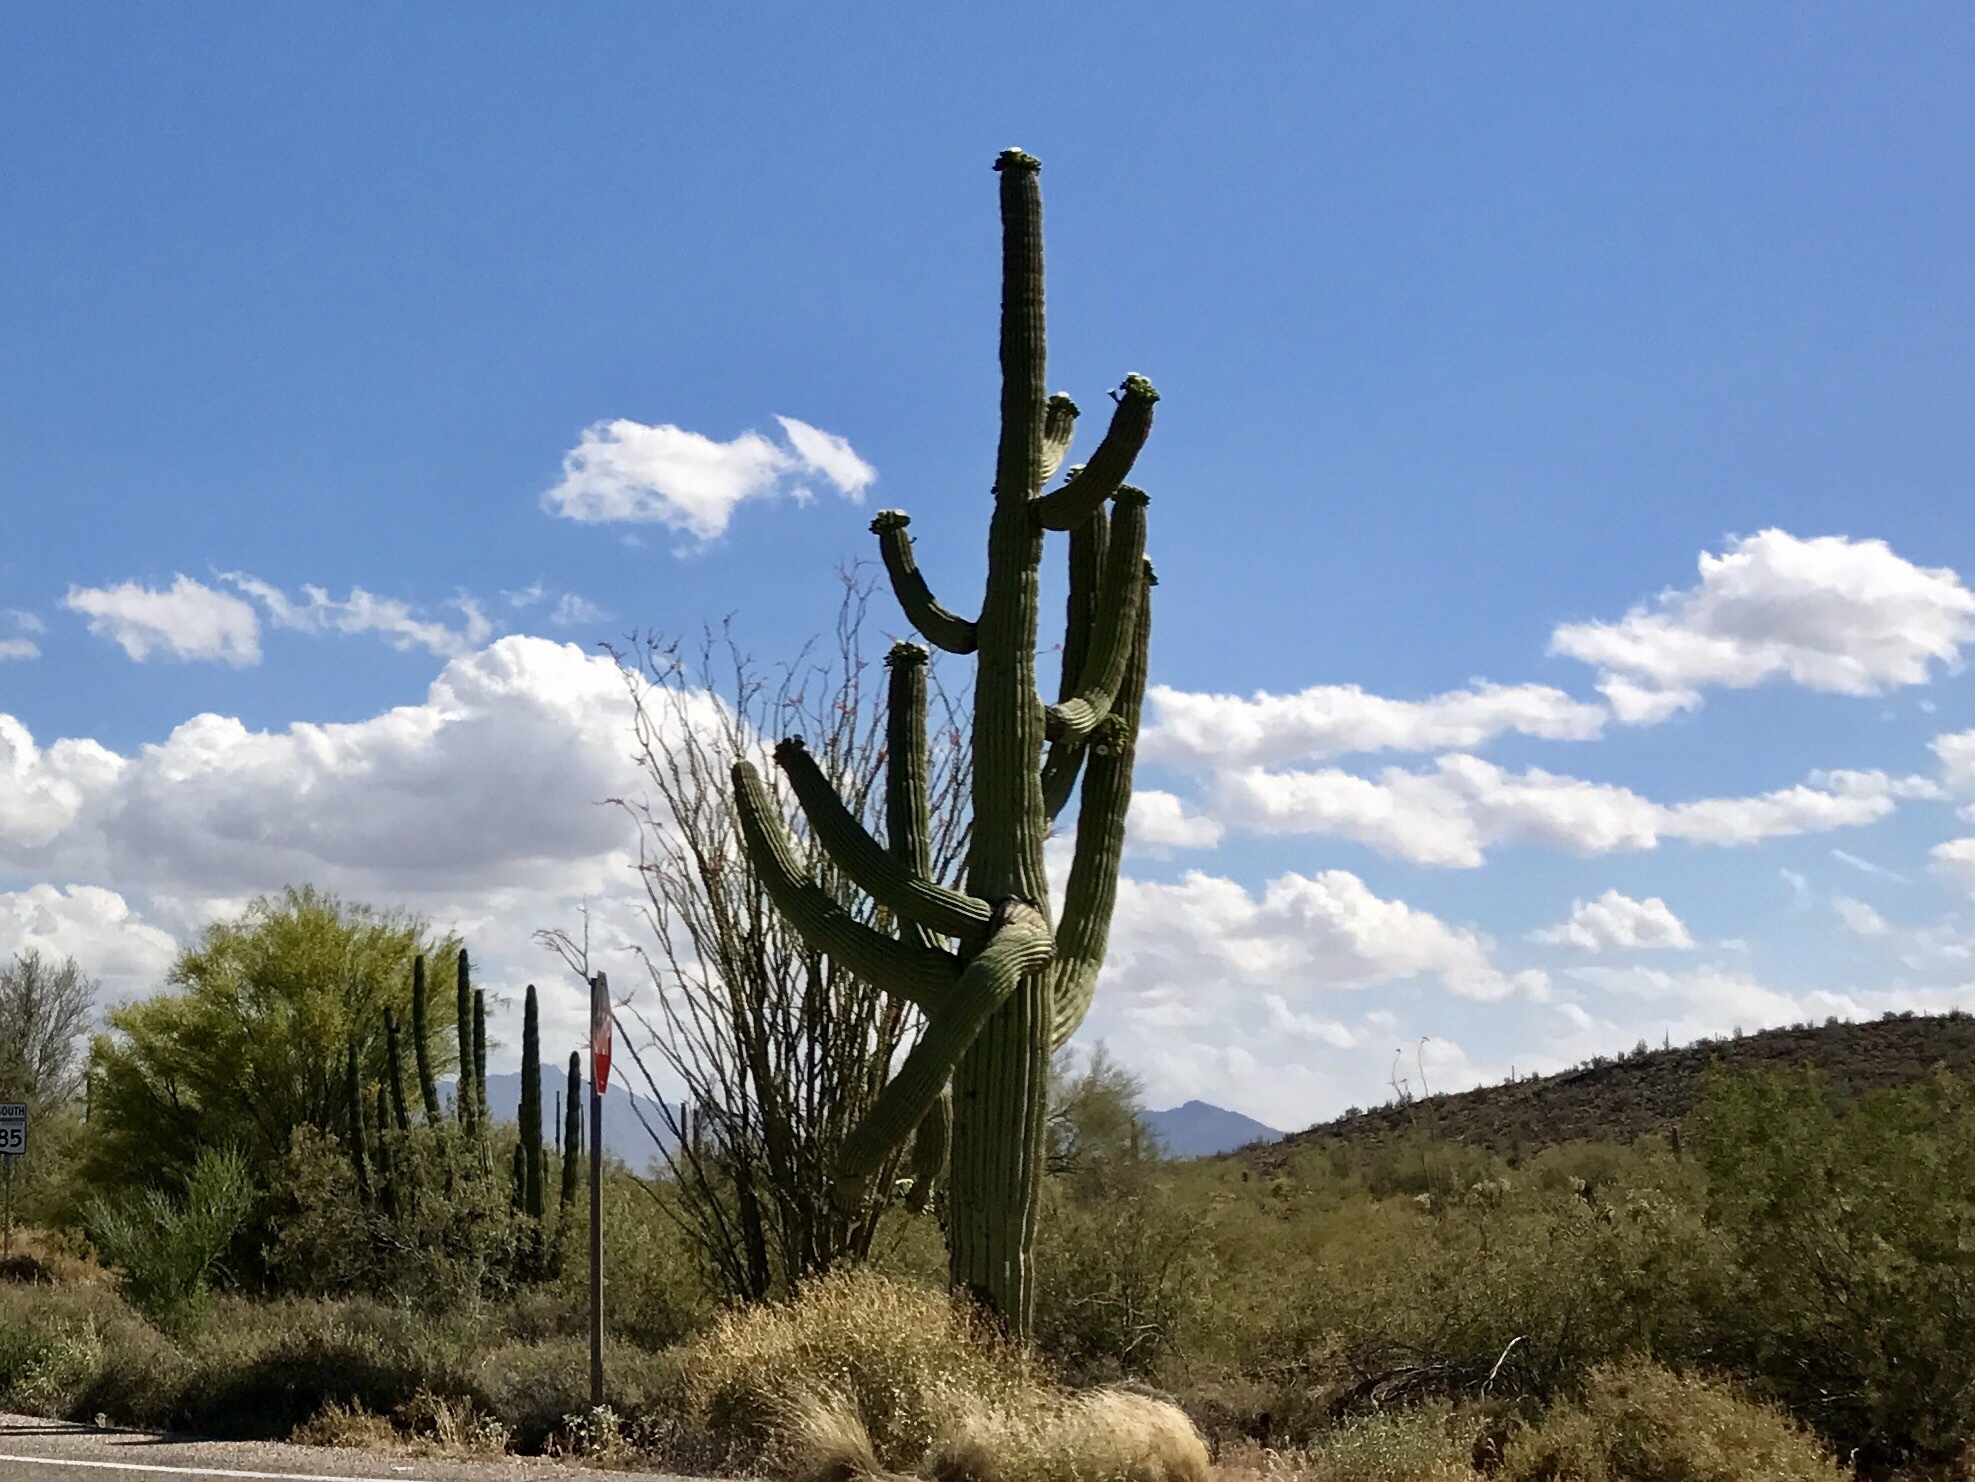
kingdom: Plantae
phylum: Tracheophyta
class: Magnoliopsida
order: Caryophyllales
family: Cactaceae
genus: Carnegiea
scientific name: Carnegiea gigantea
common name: Saguaro
